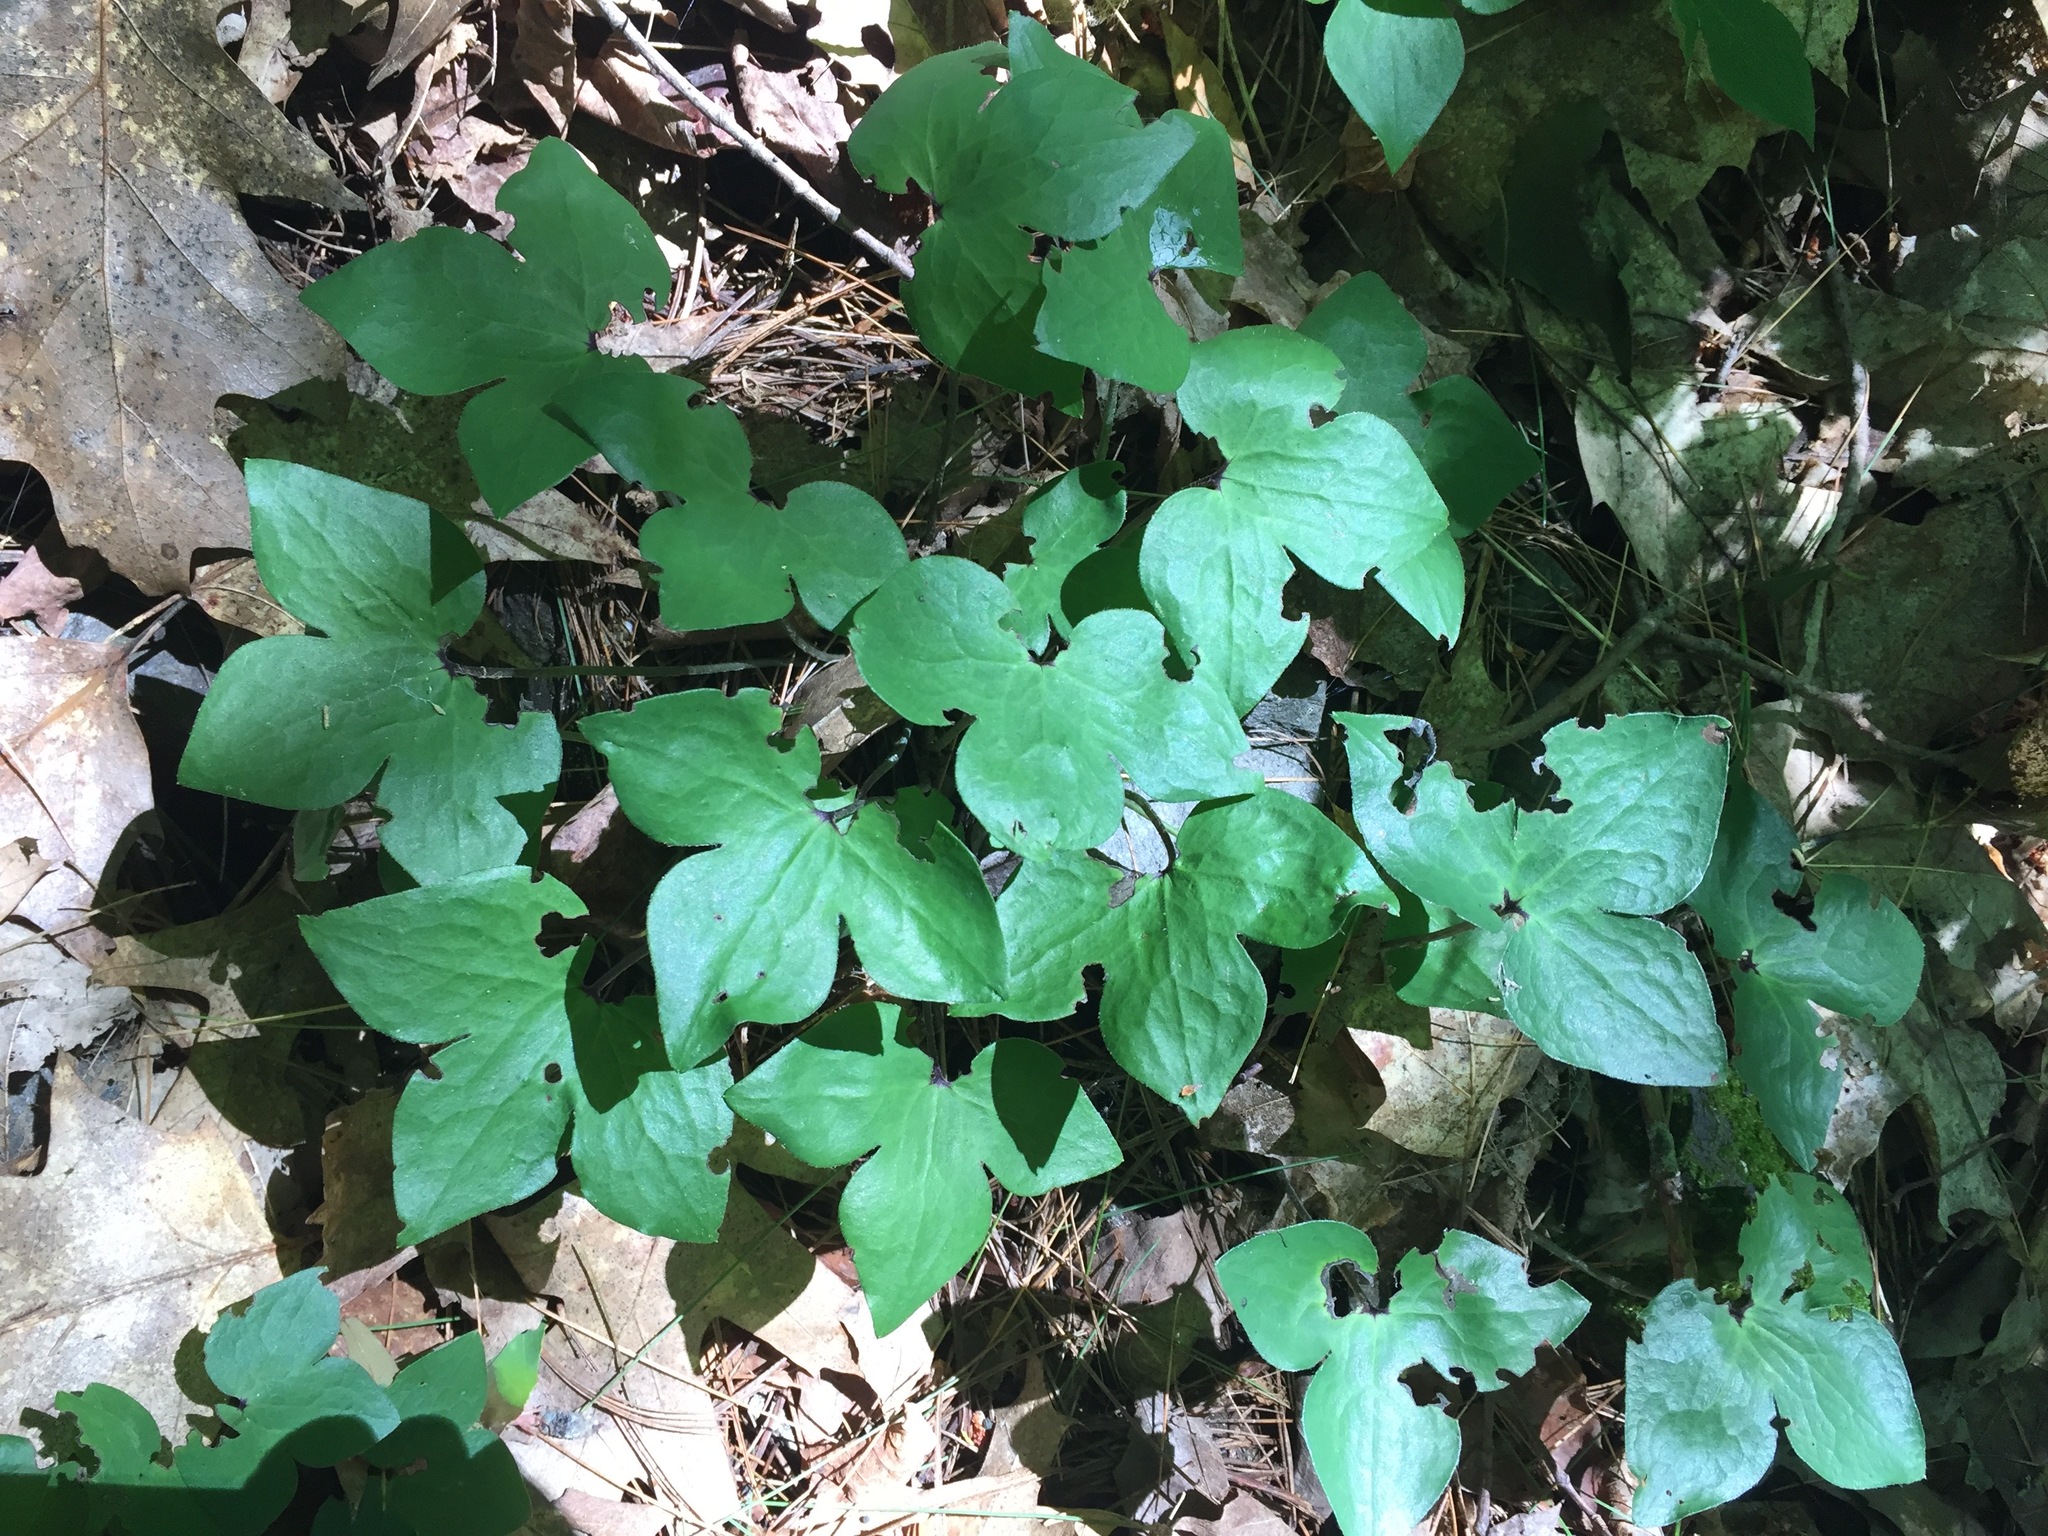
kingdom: Plantae
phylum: Tracheophyta
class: Magnoliopsida
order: Ranunculales
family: Ranunculaceae
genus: Hepatica
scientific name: Hepatica acutiloba
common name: Sharp-lobed hepatica
